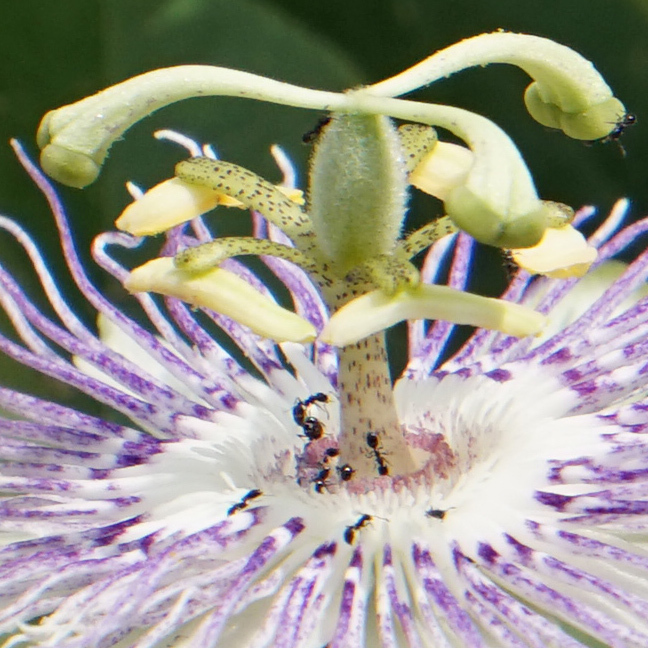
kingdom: Animalia
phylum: Arthropoda
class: Insecta
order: Hymenoptera
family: Formicidae
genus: Monomorium
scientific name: Monomorium minimum
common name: Little black ant
